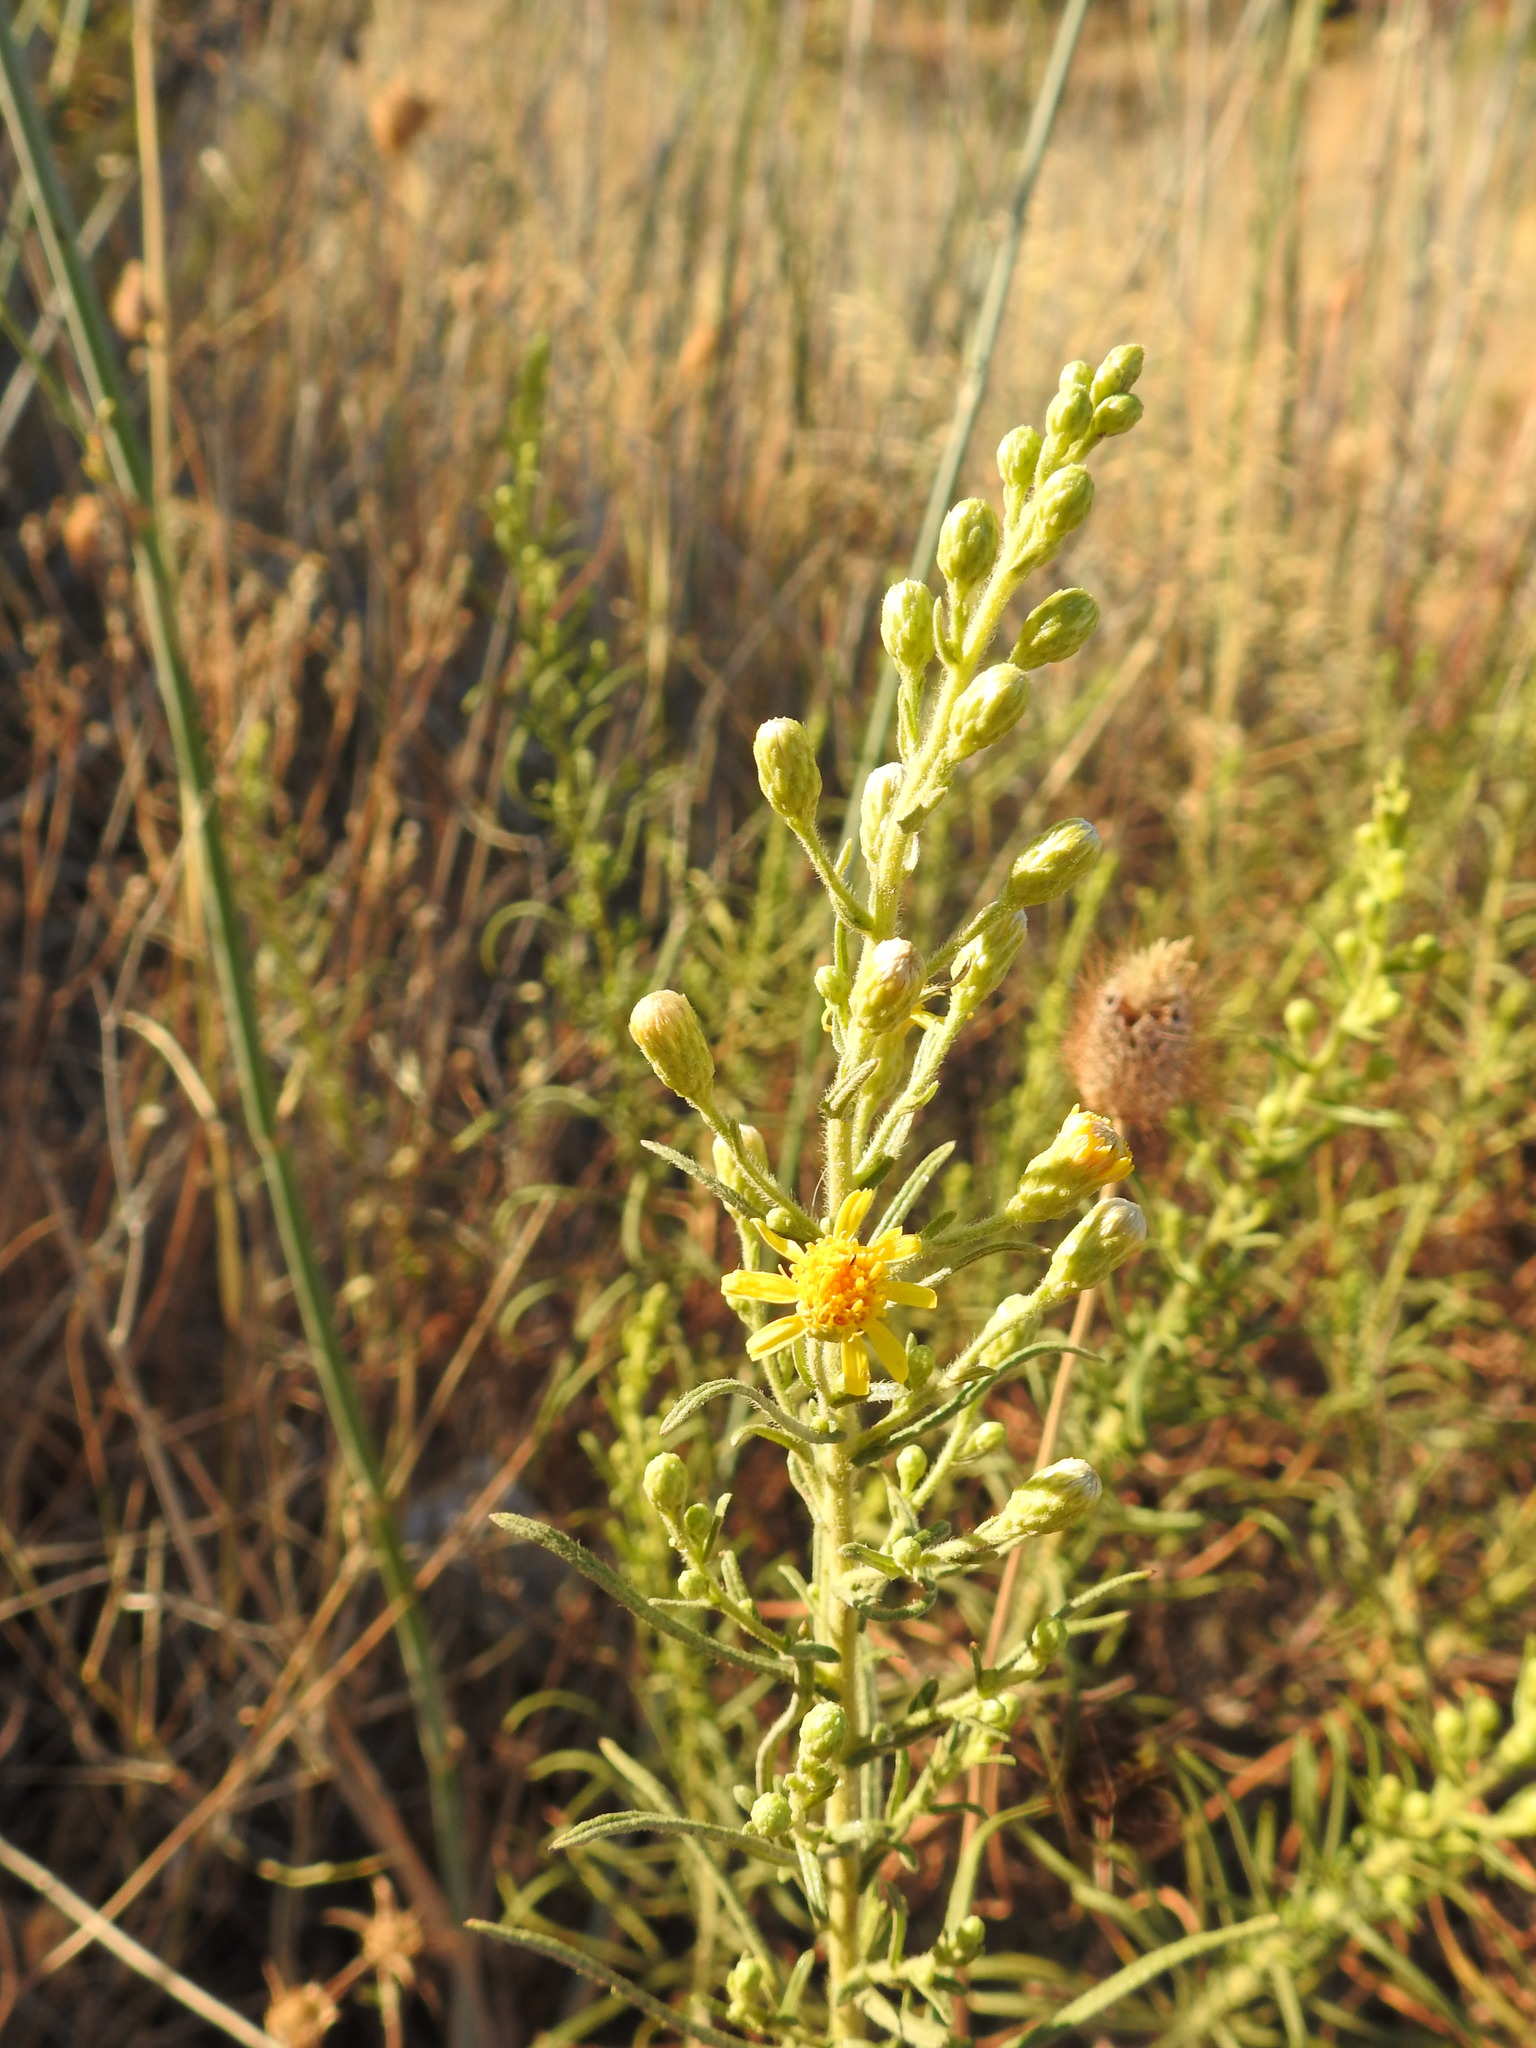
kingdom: Plantae
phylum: Tracheophyta
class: Magnoliopsida
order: Asterales
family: Asteraceae
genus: Dittrichia
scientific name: Dittrichia viscosa
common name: Woody fleabane
